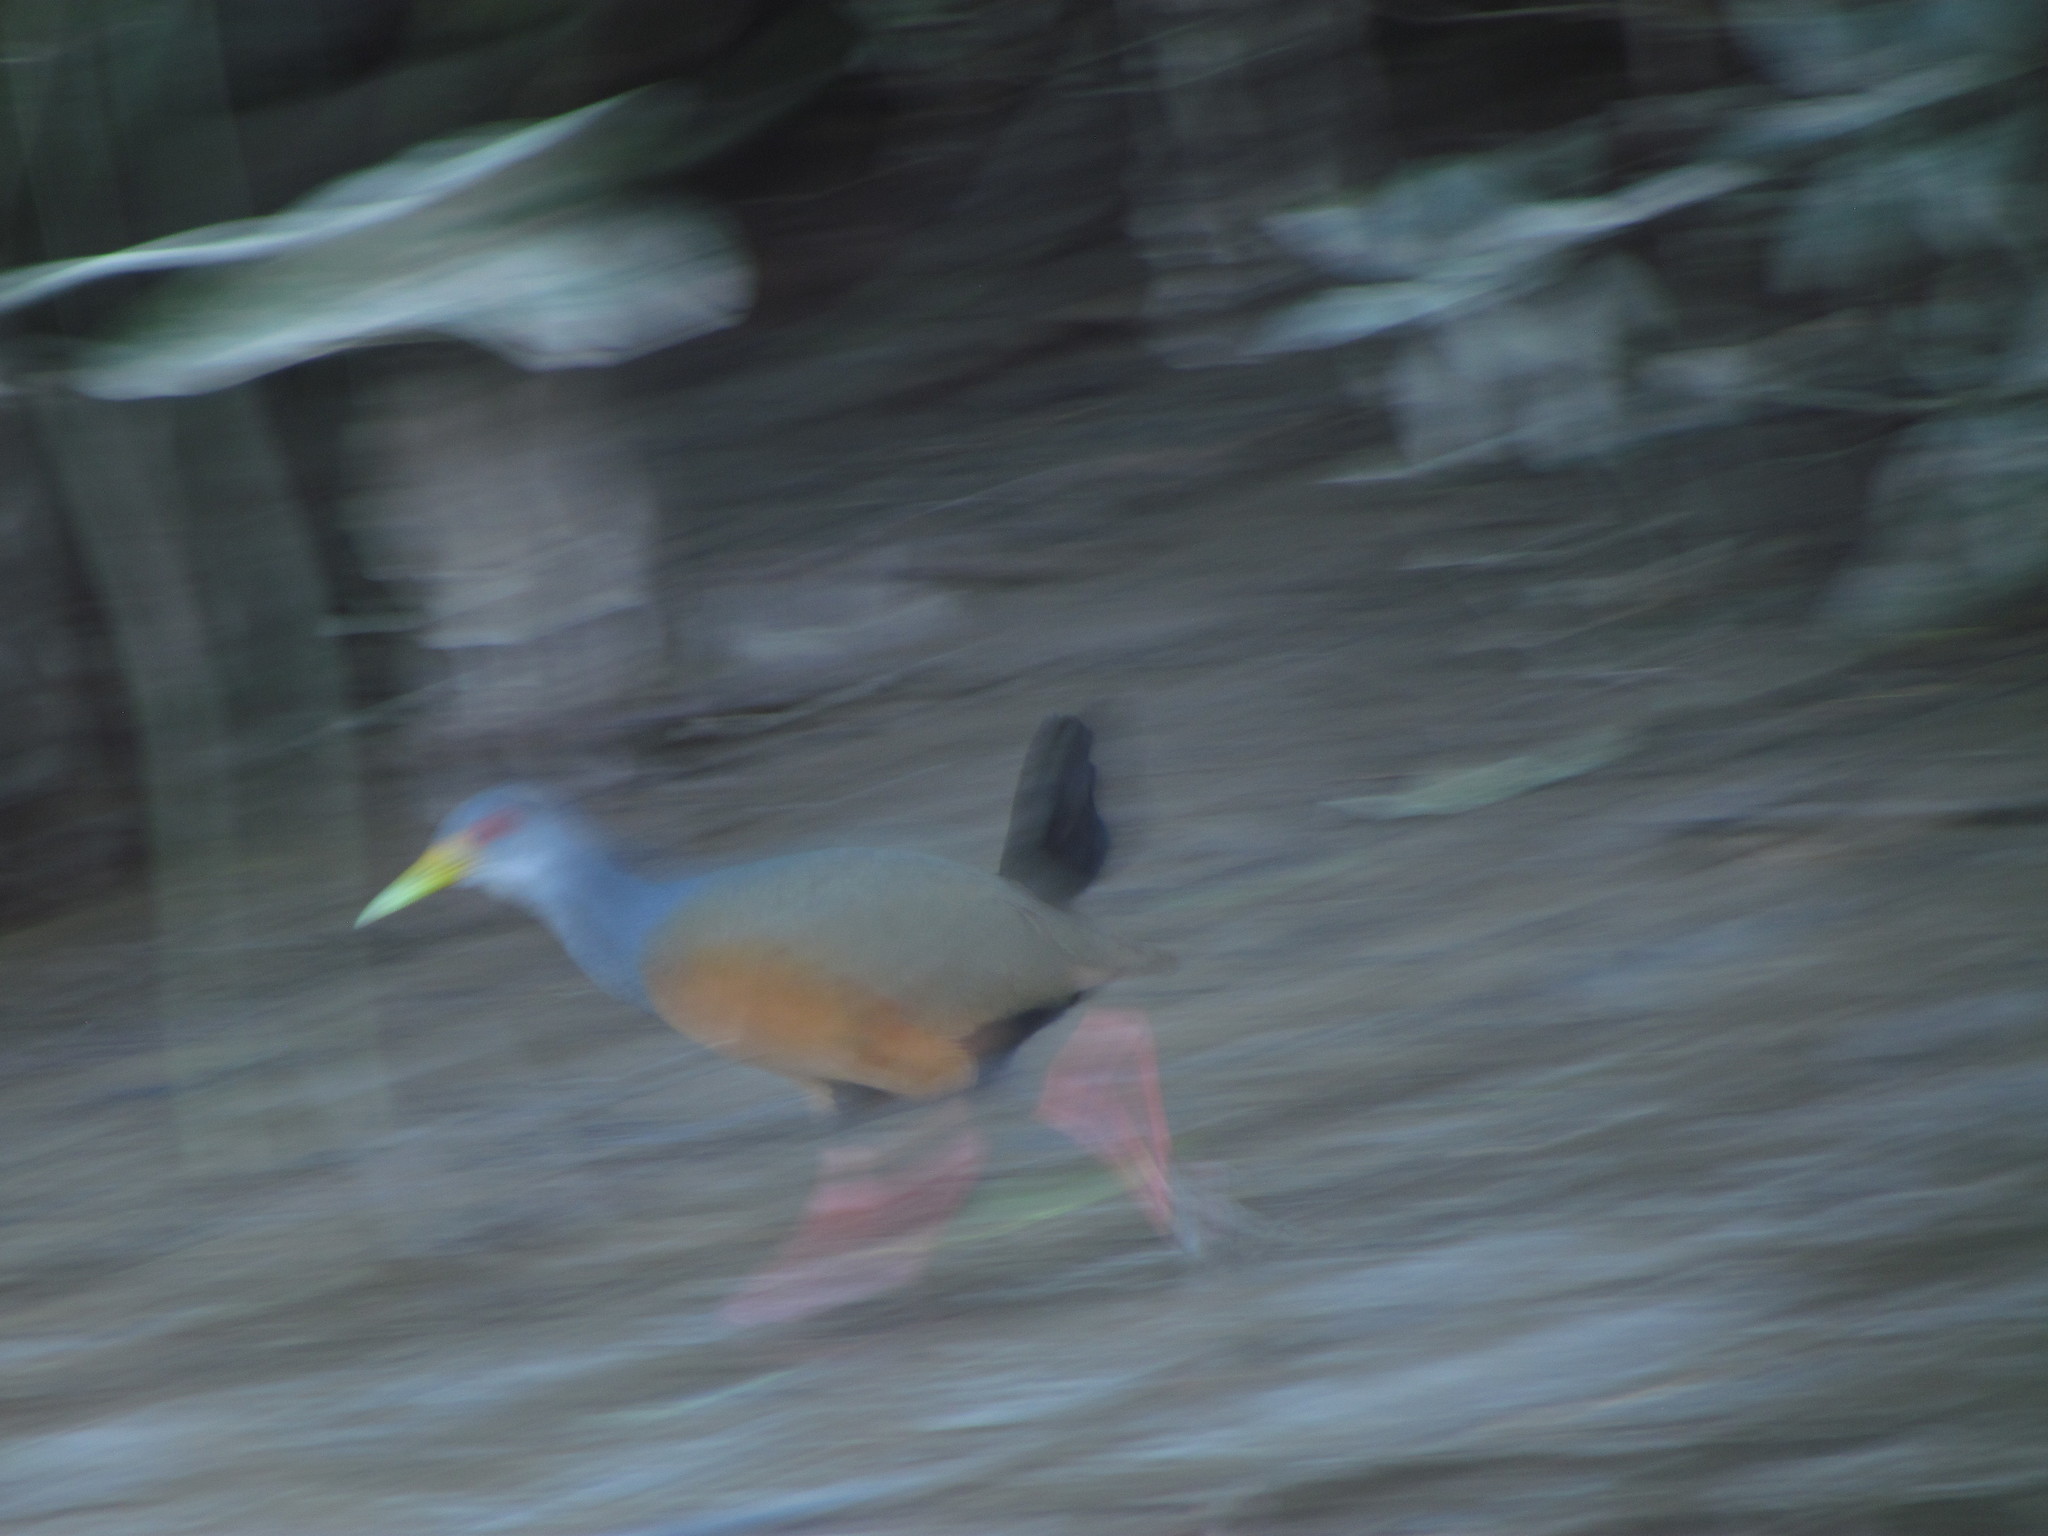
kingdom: Animalia
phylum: Chordata
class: Aves
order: Gruiformes
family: Rallidae
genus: Aramides
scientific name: Aramides cajanea
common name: Gray-necked wood-rail
